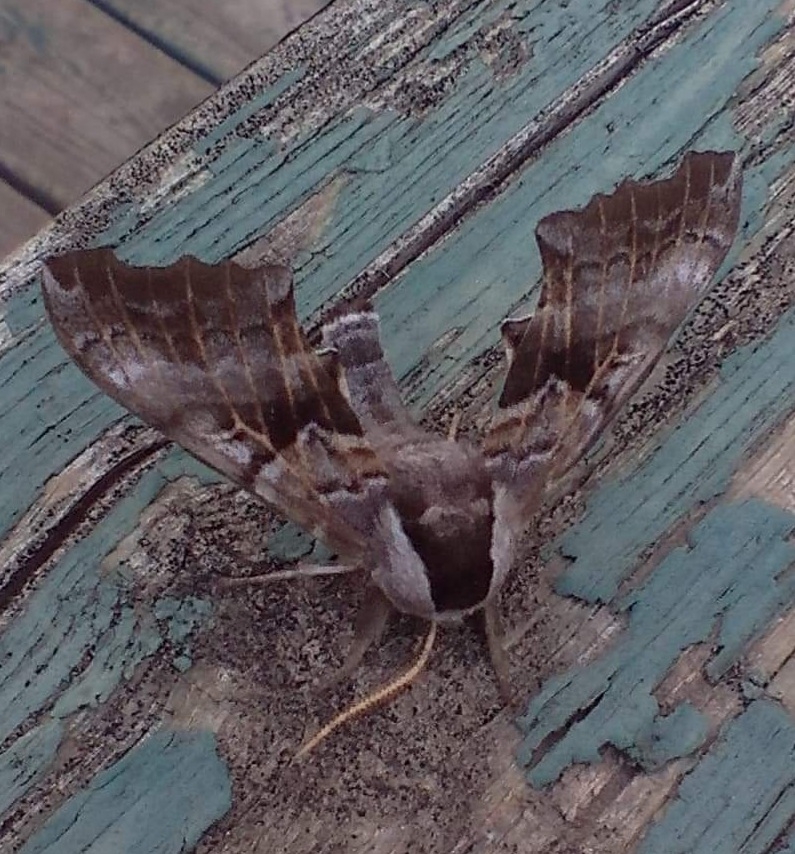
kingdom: Animalia
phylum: Arthropoda
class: Insecta
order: Lepidoptera
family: Sphingidae
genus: Smerinthus
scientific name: Smerinthus cerisyi
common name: Cerisy's sphinx moth
